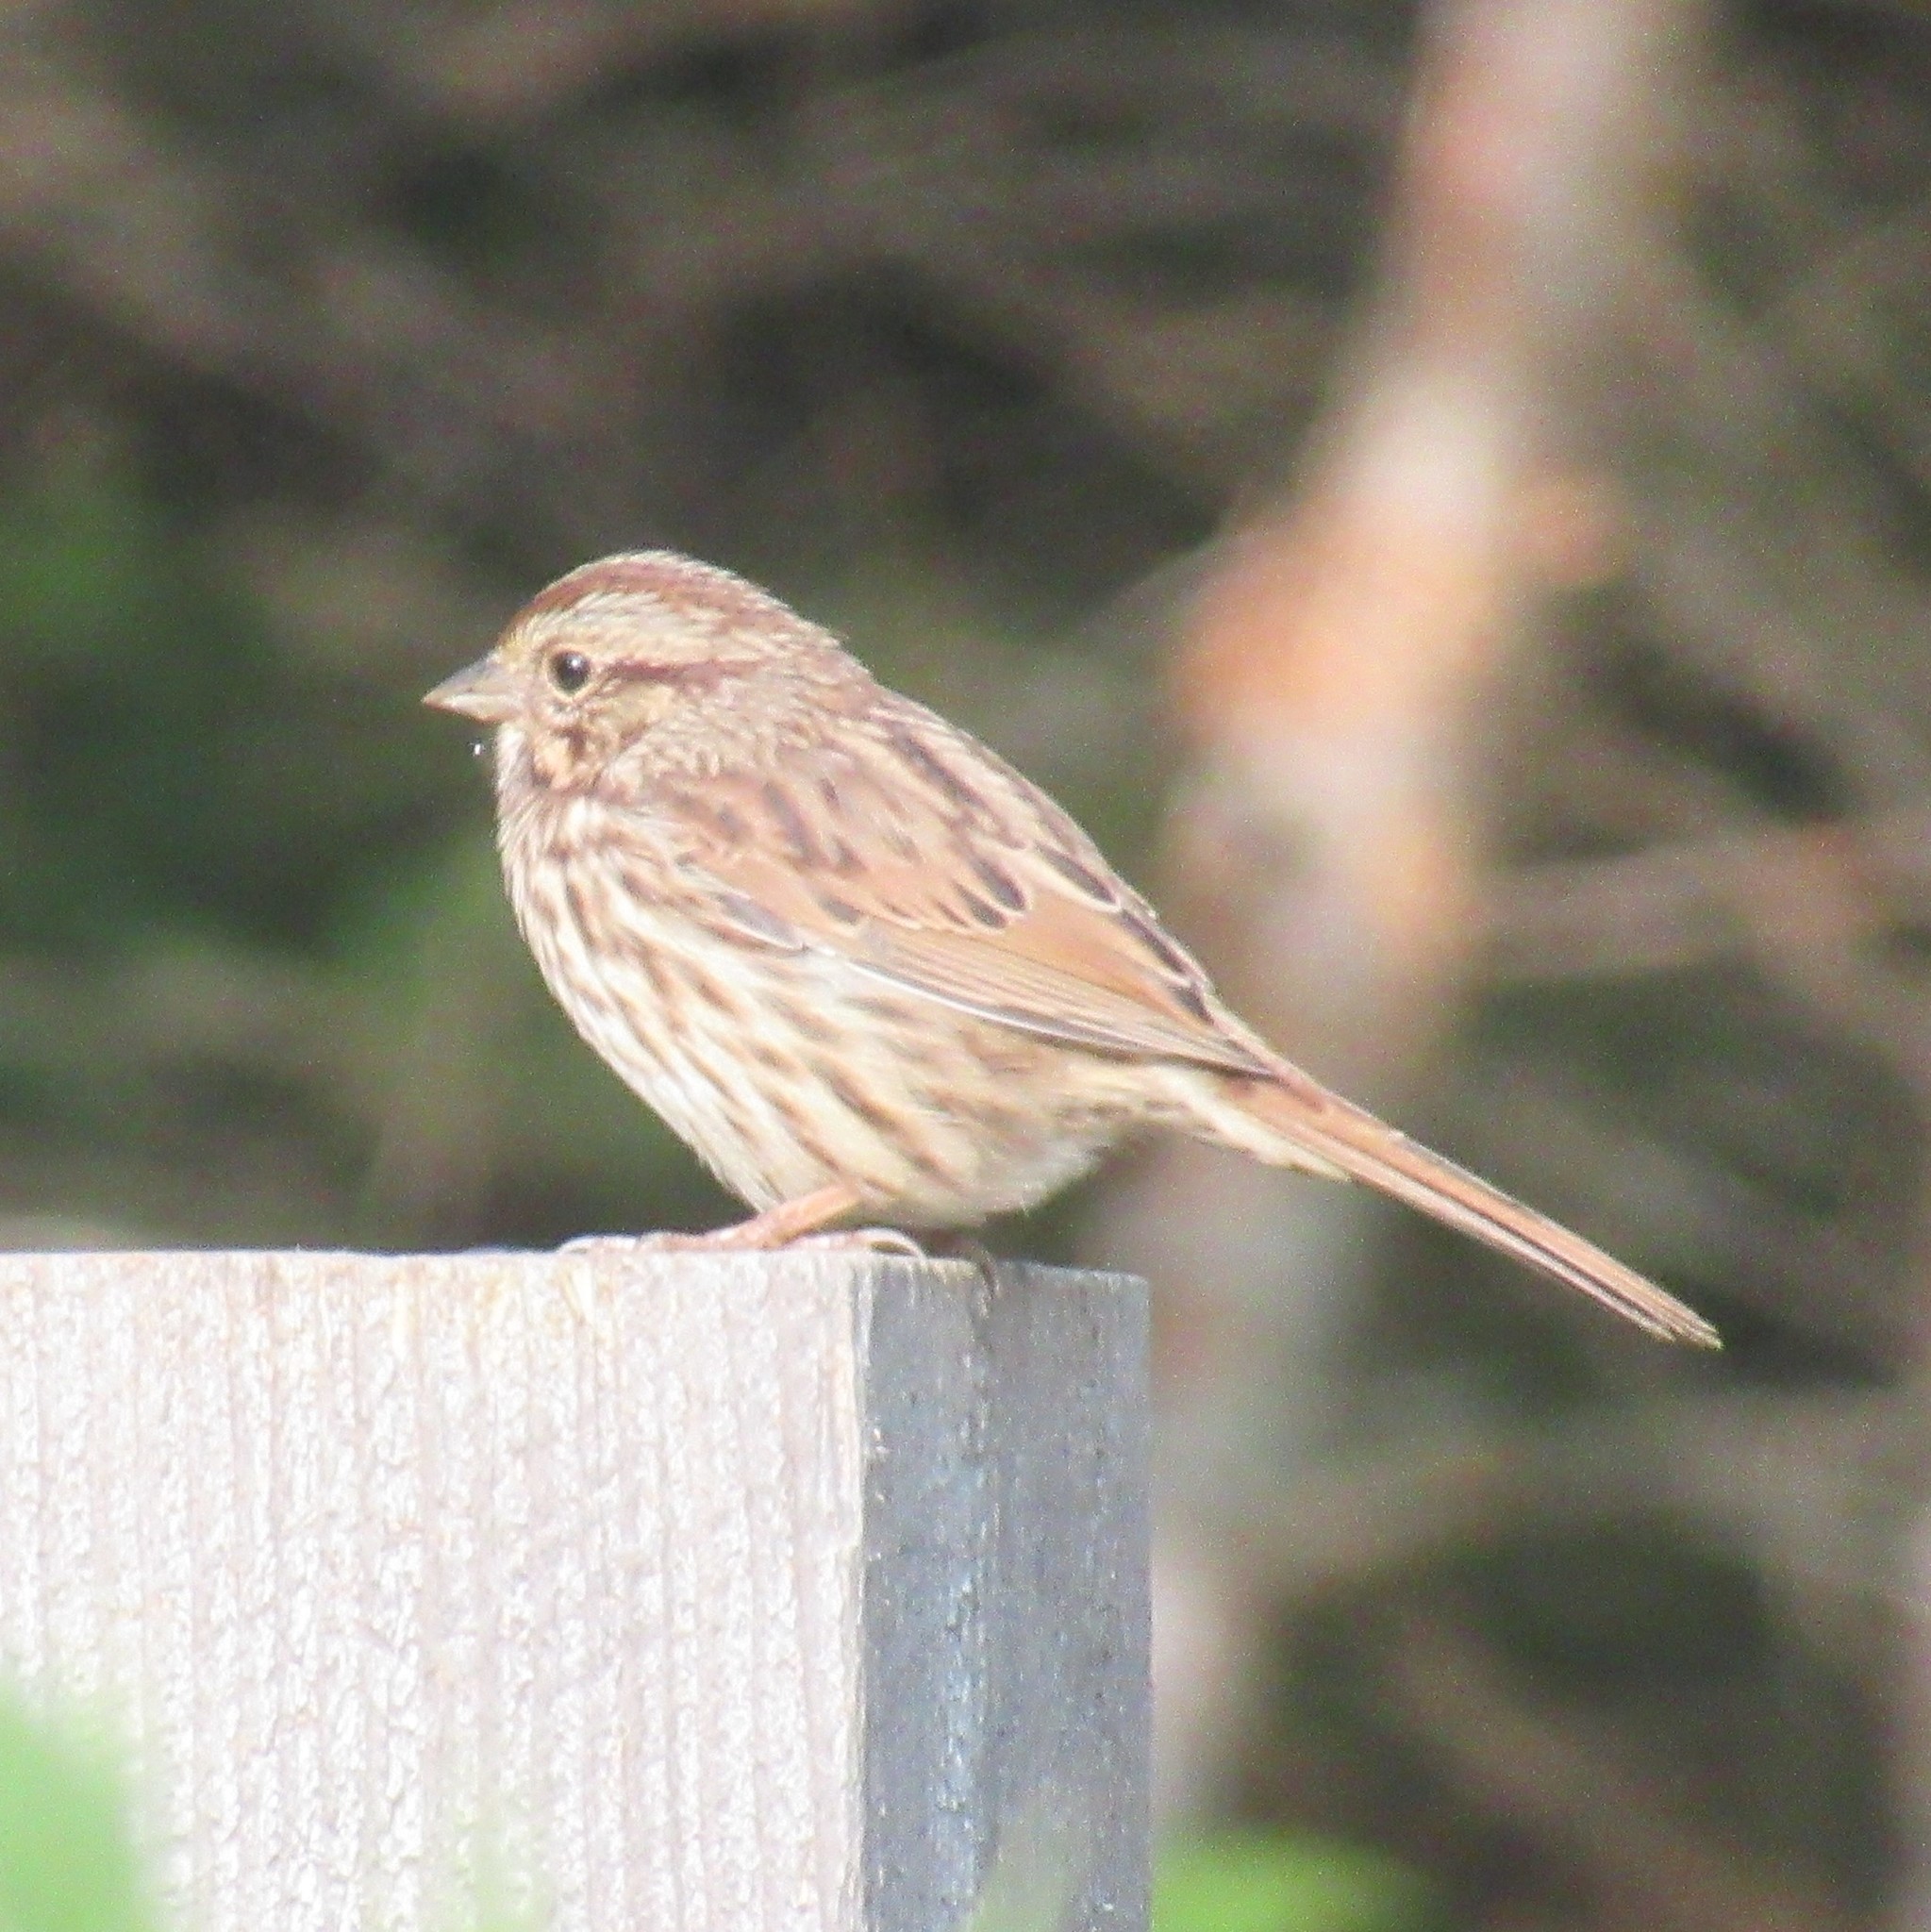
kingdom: Animalia
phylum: Chordata
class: Aves
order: Passeriformes
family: Passerellidae
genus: Melospiza
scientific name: Melospiza melodia
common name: Song sparrow
